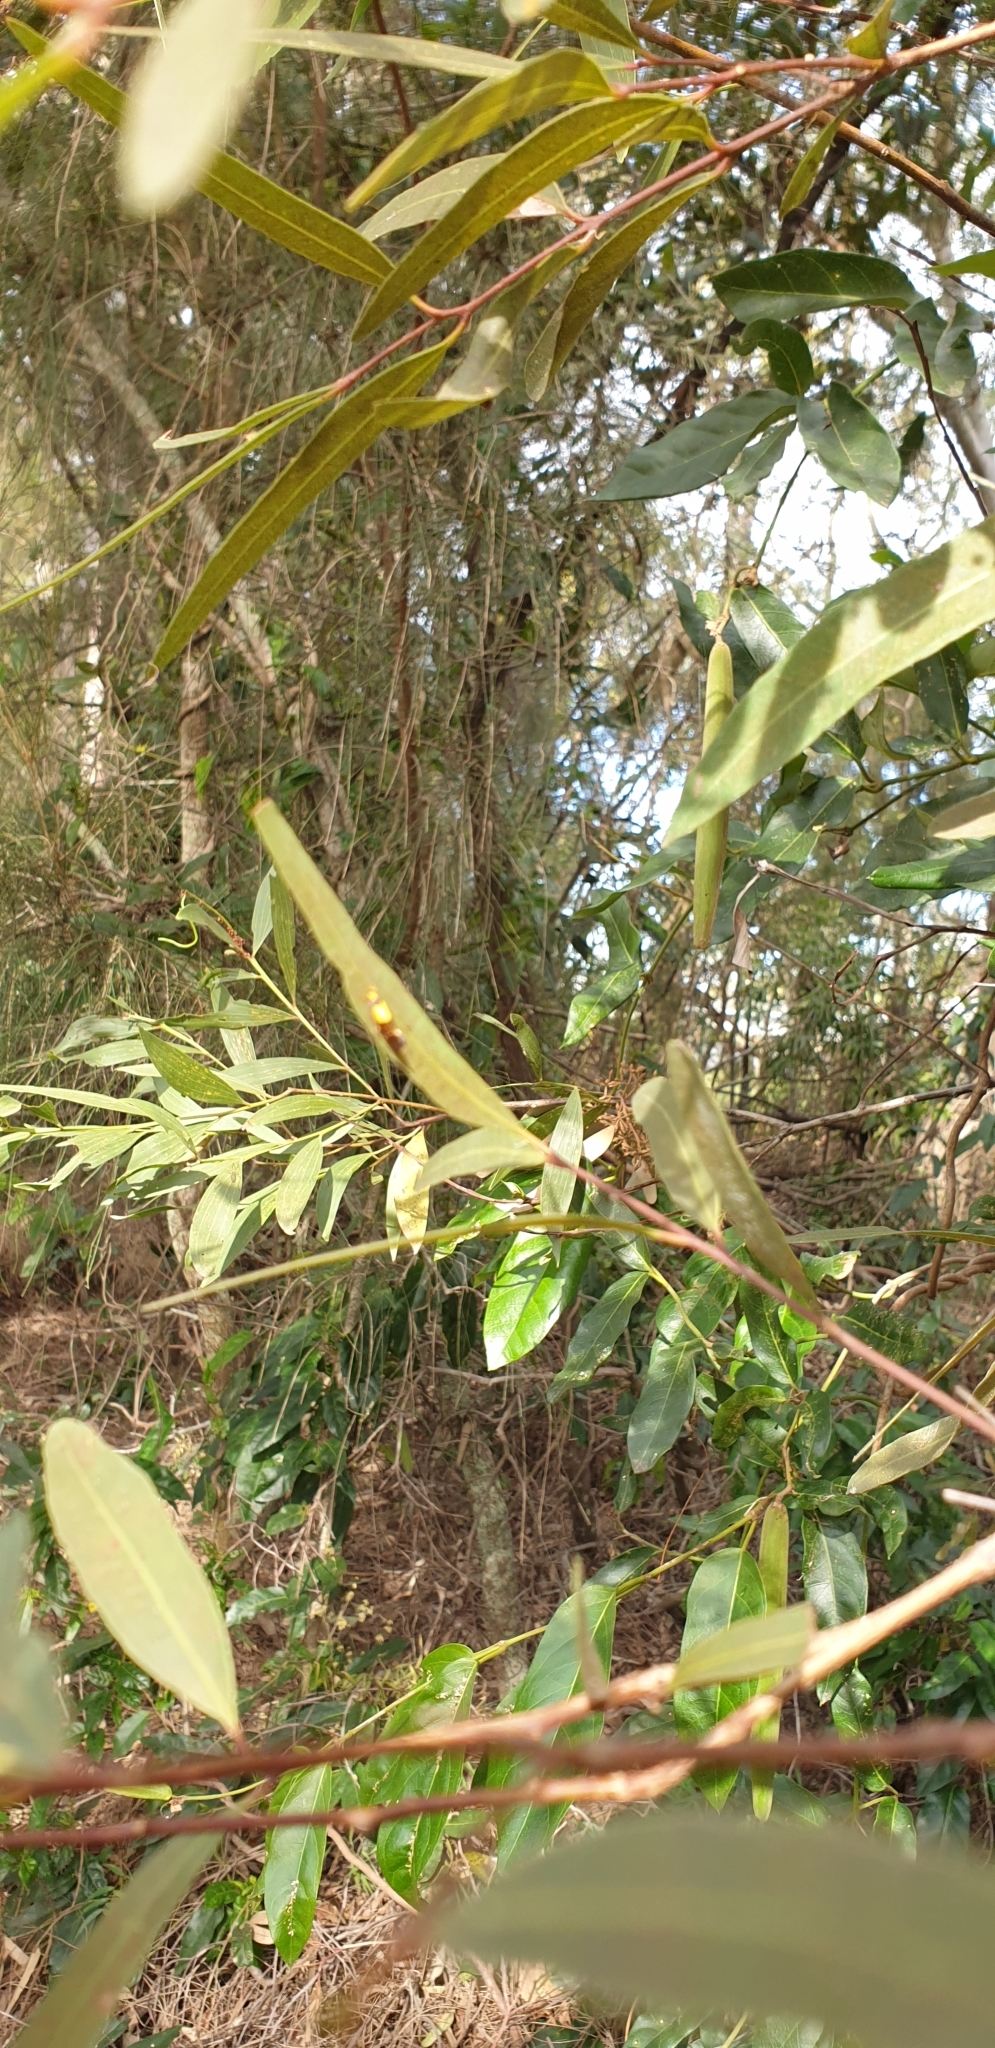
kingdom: Animalia
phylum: Arthropoda
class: Insecta
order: Lepidoptera
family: Oecophoridae
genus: Eulechria
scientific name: Eulechria basiplaga
